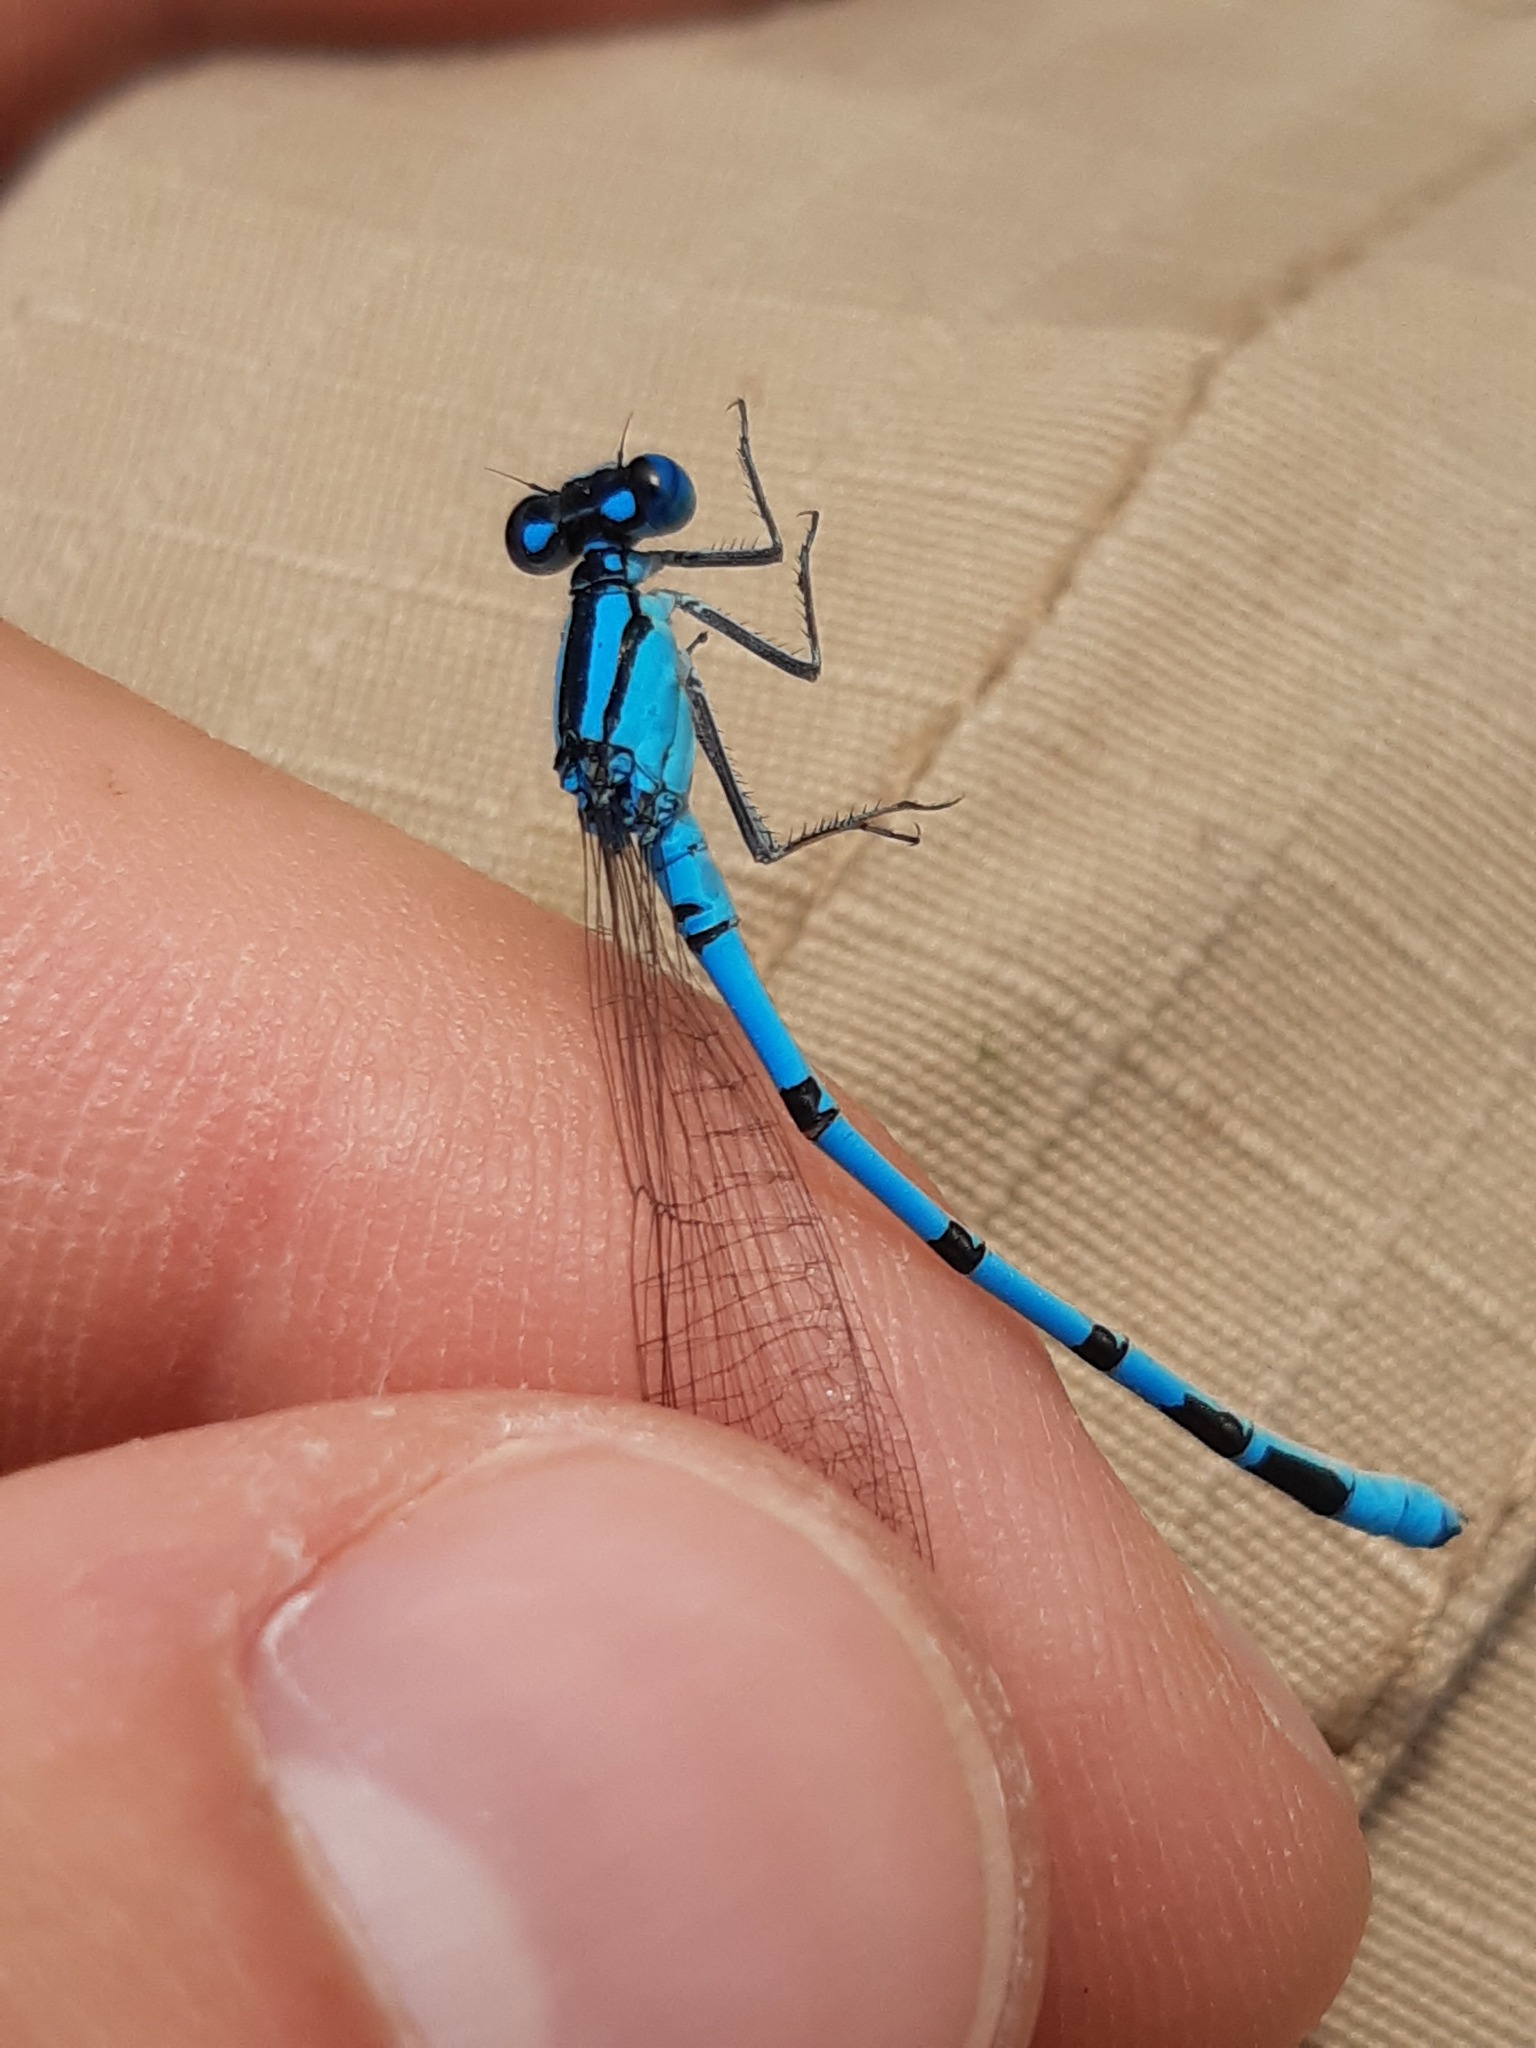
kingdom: Animalia
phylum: Arthropoda
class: Insecta
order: Odonata
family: Coenagrionidae
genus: Enallagma
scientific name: Enallagma cyathigerum
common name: Common blue damselfly
